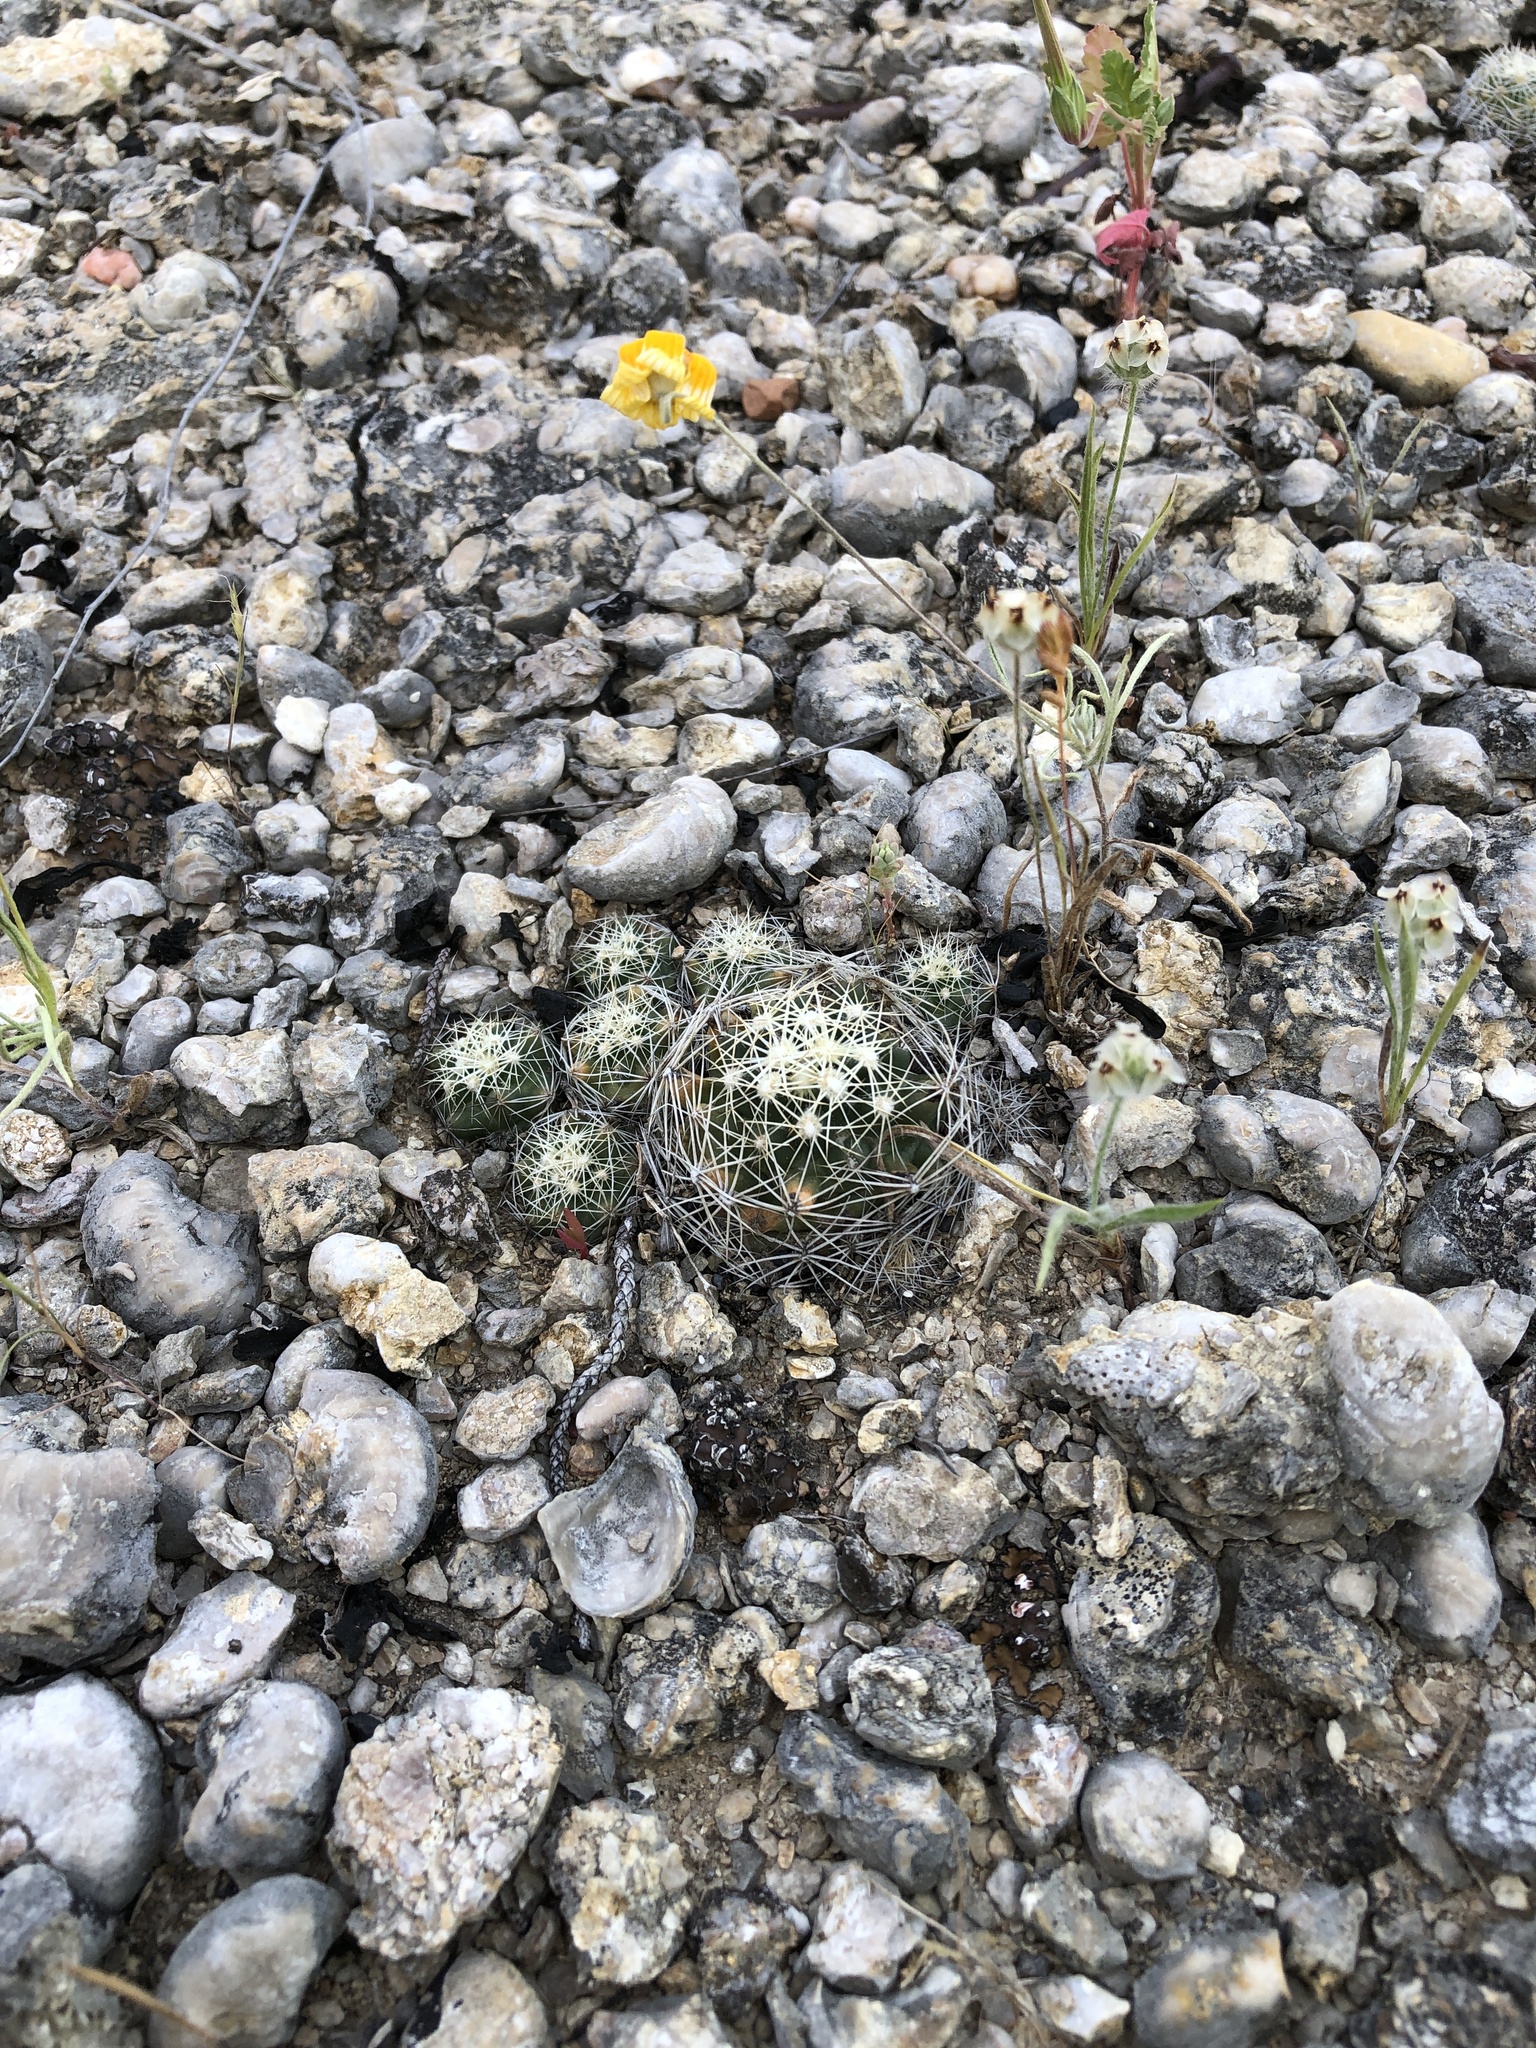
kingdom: Plantae
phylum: Tracheophyta
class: Magnoliopsida
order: Caryophyllales
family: Cactaceae
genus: Pelecyphora
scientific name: Pelecyphora missouriensis
